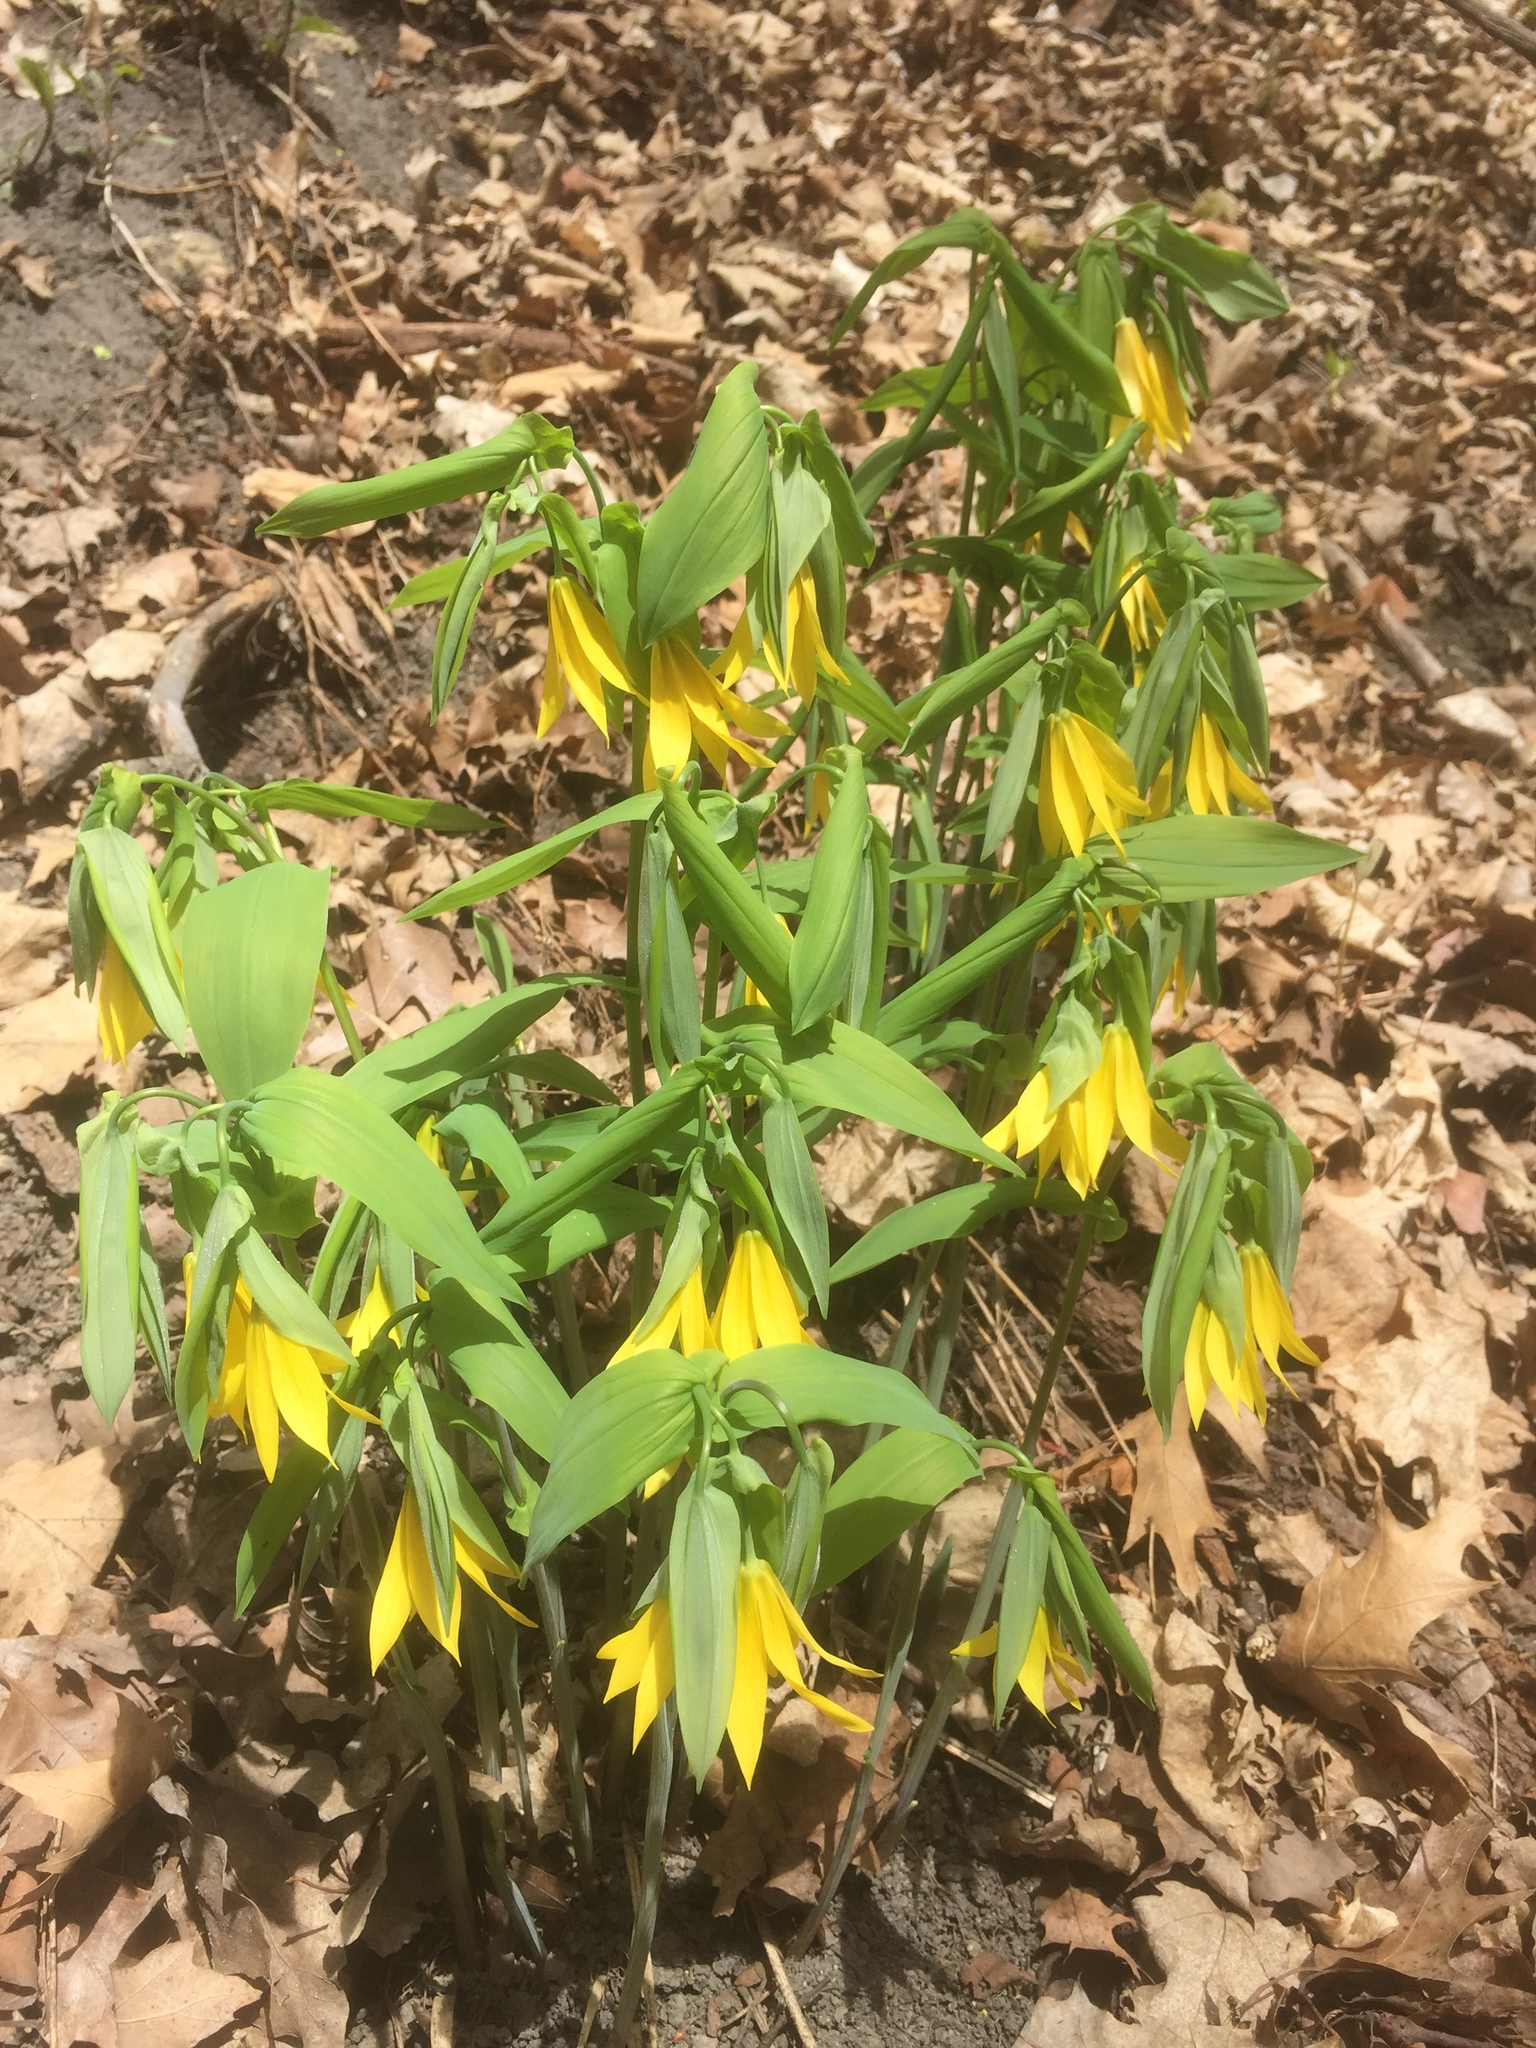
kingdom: Plantae
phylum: Tracheophyta
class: Liliopsida
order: Liliales
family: Colchicaceae
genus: Uvularia
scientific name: Uvularia grandiflora
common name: Bellwort
